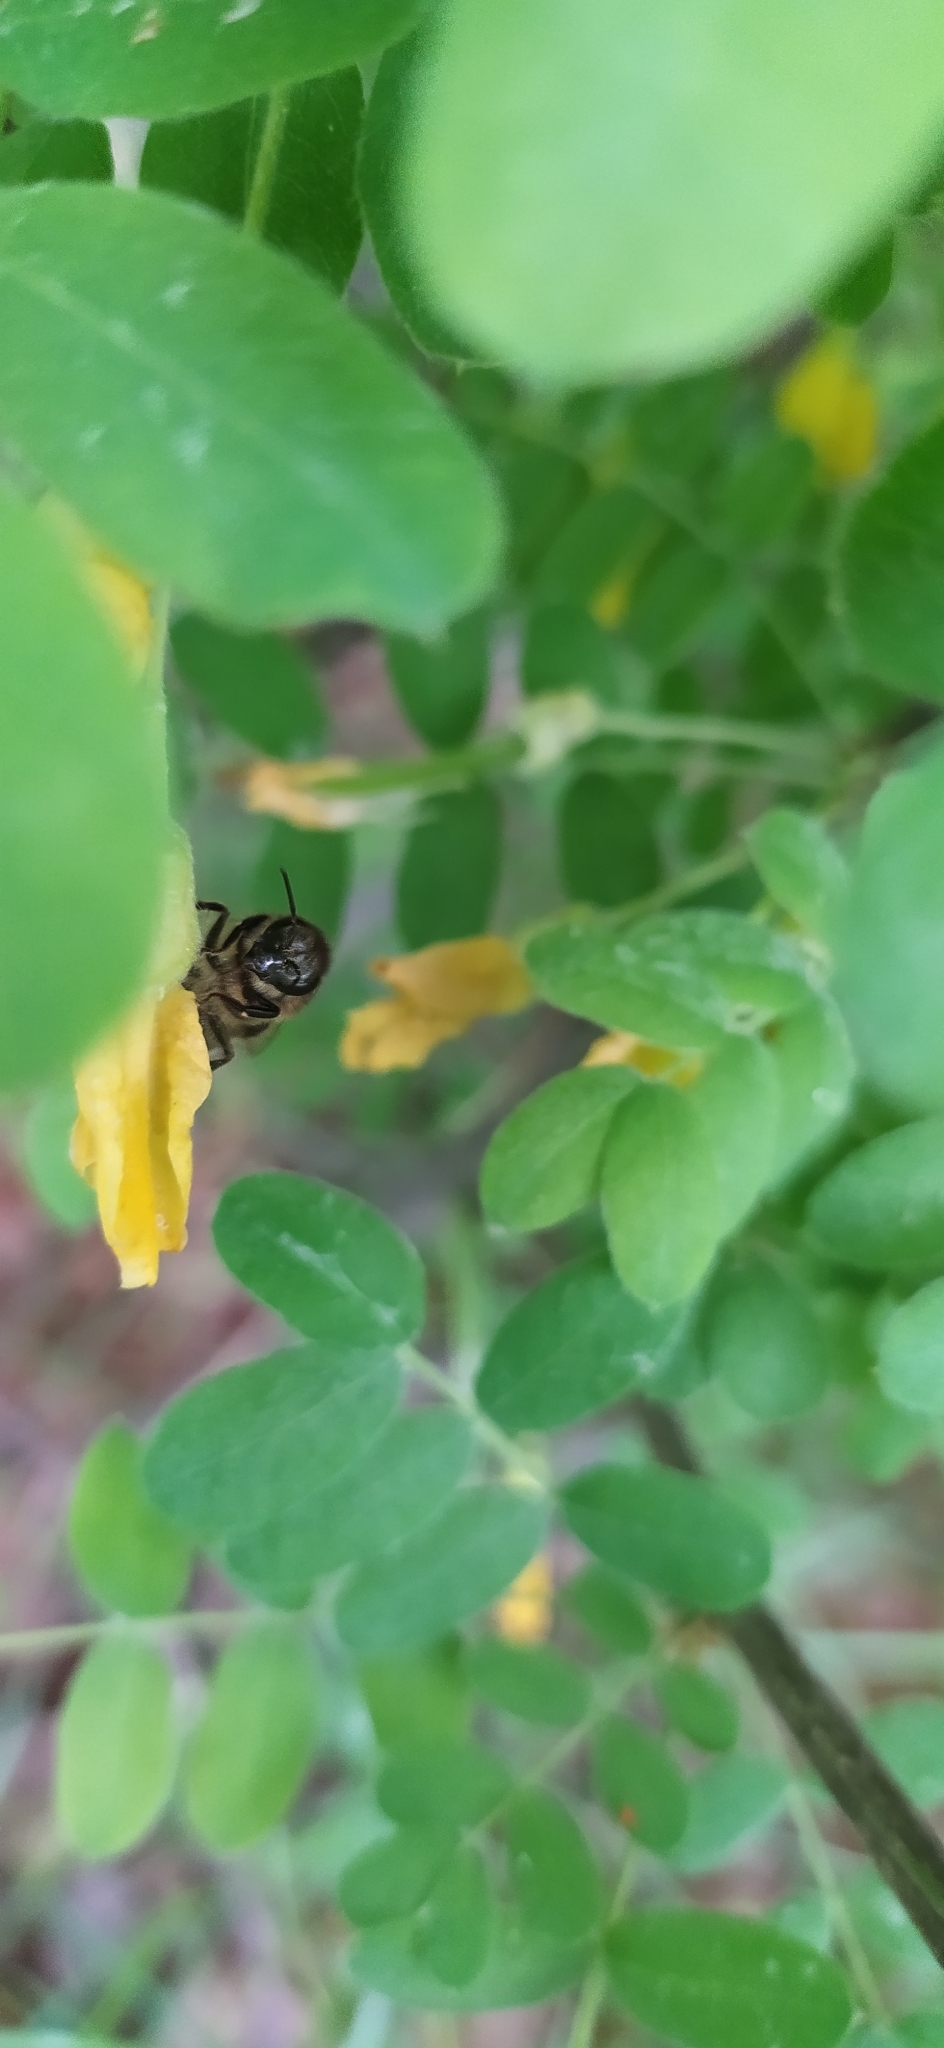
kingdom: Animalia
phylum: Arthropoda
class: Insecta
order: Hymenoptera
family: Apidae
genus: Apis
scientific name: Apis mellifera
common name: Honey bee
